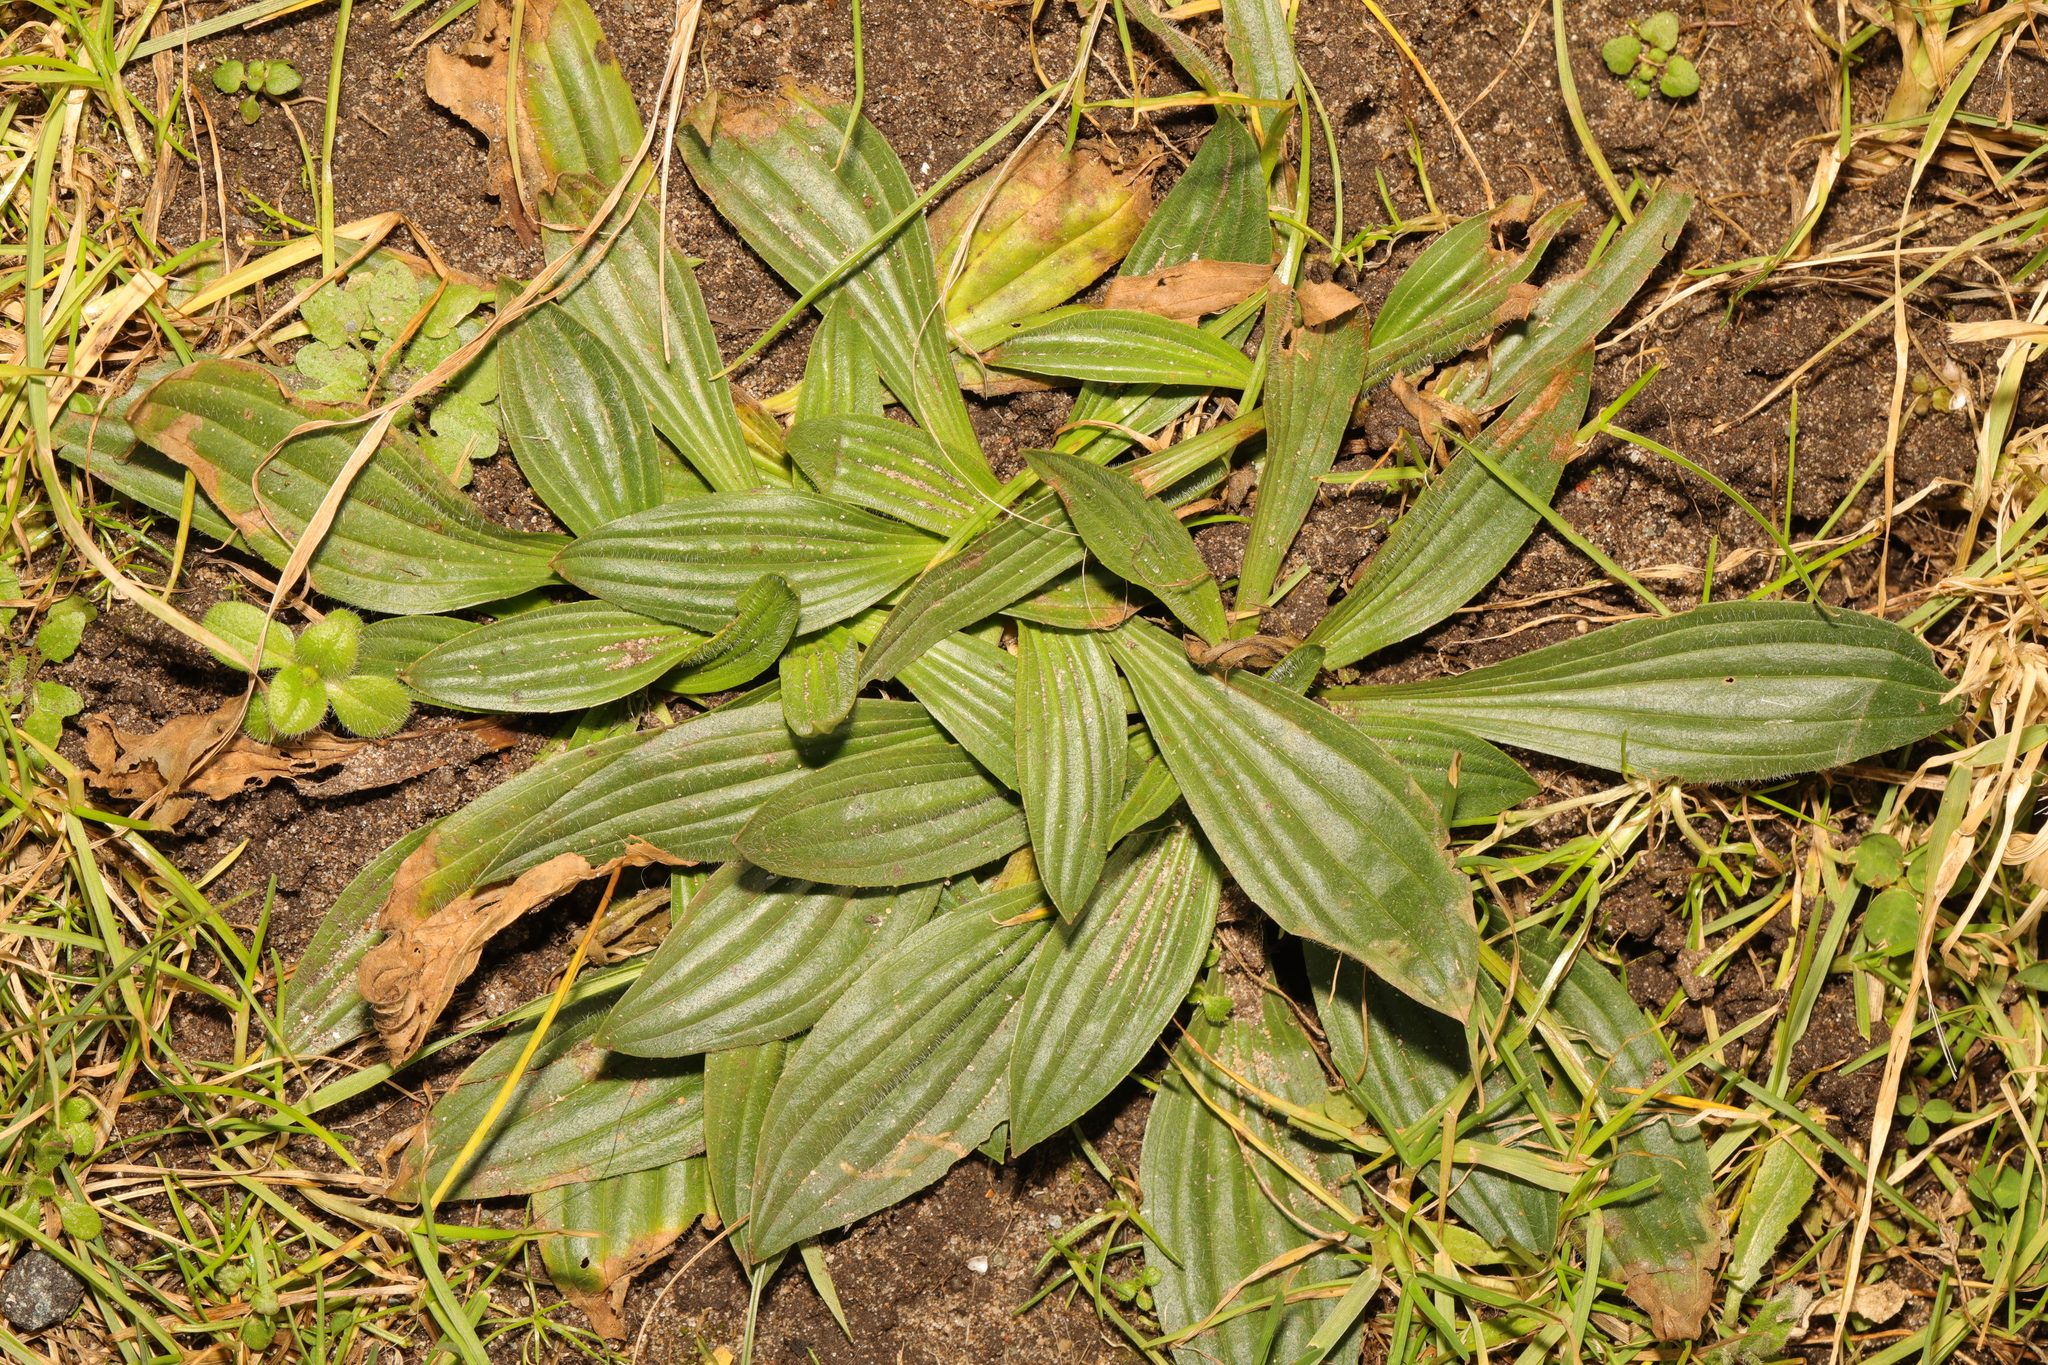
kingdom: Plantae
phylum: Tracheophyta
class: Magnoliopsida
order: Lamiales
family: Plantaginaceae
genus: Plantago
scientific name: Plantago lanceolata
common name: Ribwort plantain
